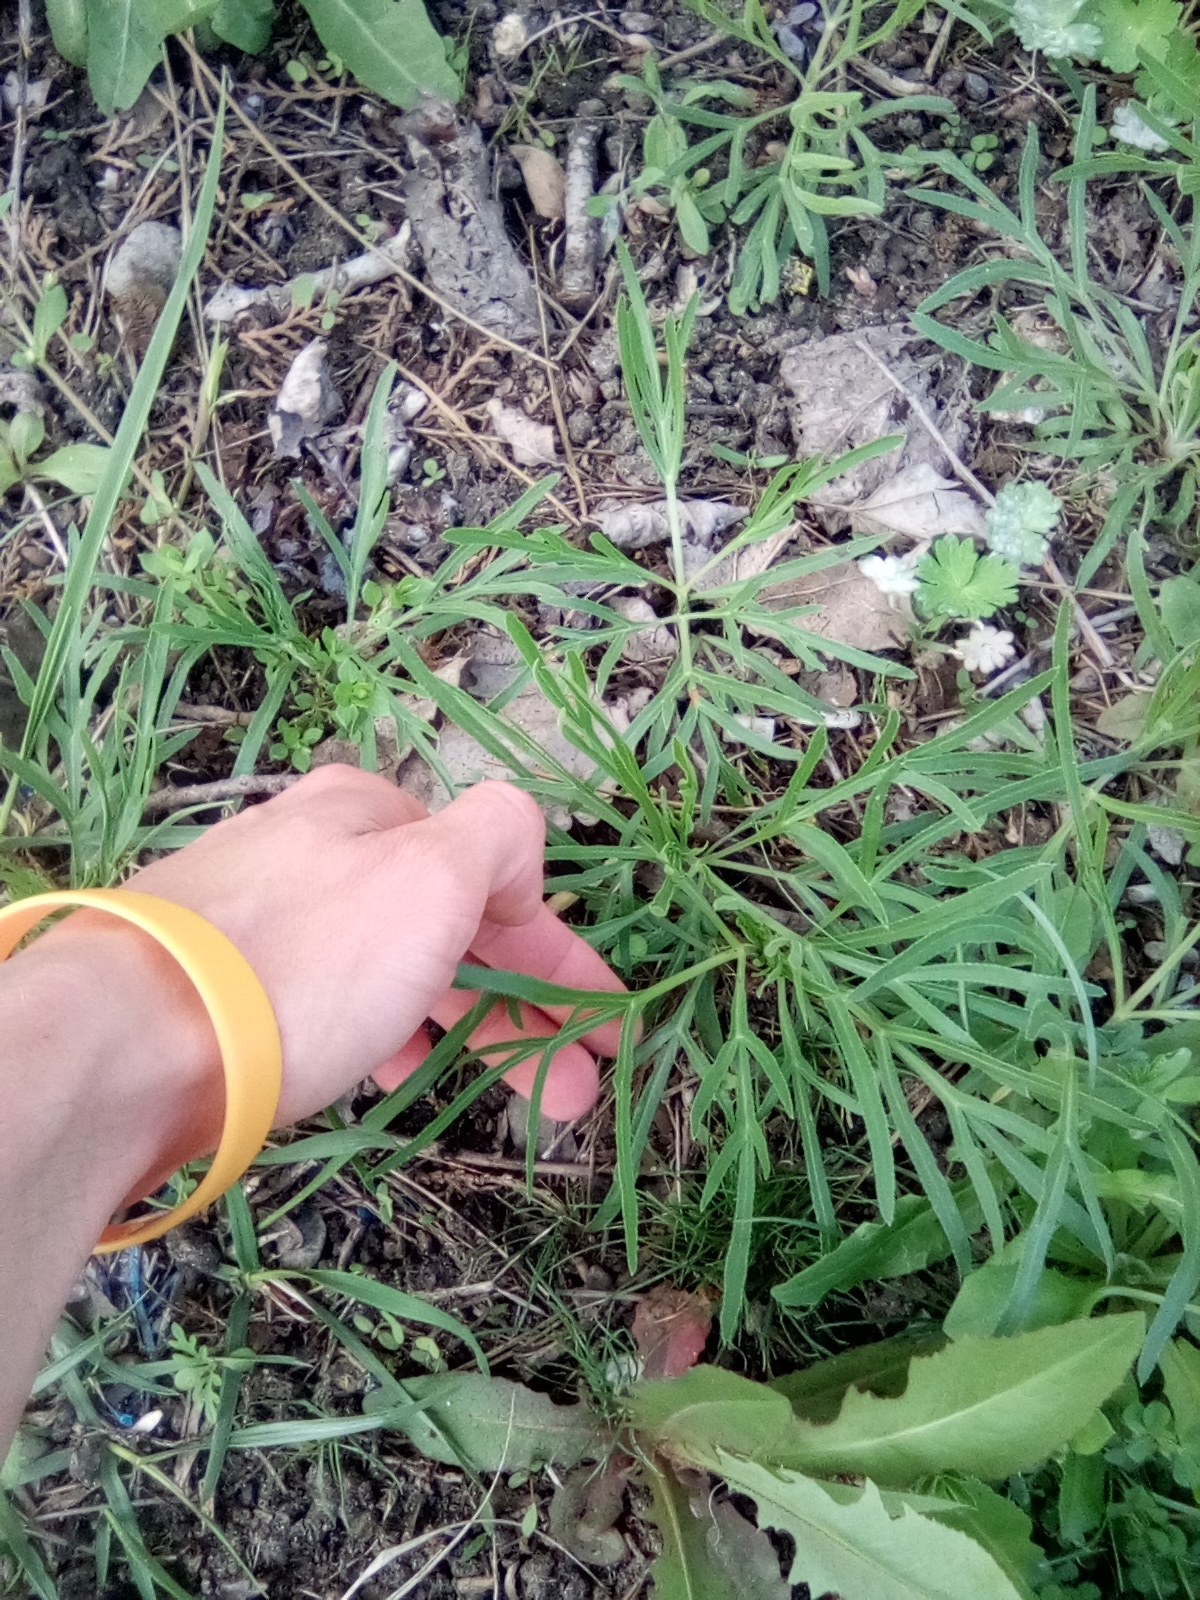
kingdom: Plantae
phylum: Tracheophyta
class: Magnoliopsida
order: Apiales
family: Apiaceae
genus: Falcaria
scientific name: Falcaria vulgaris
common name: Longleaf
